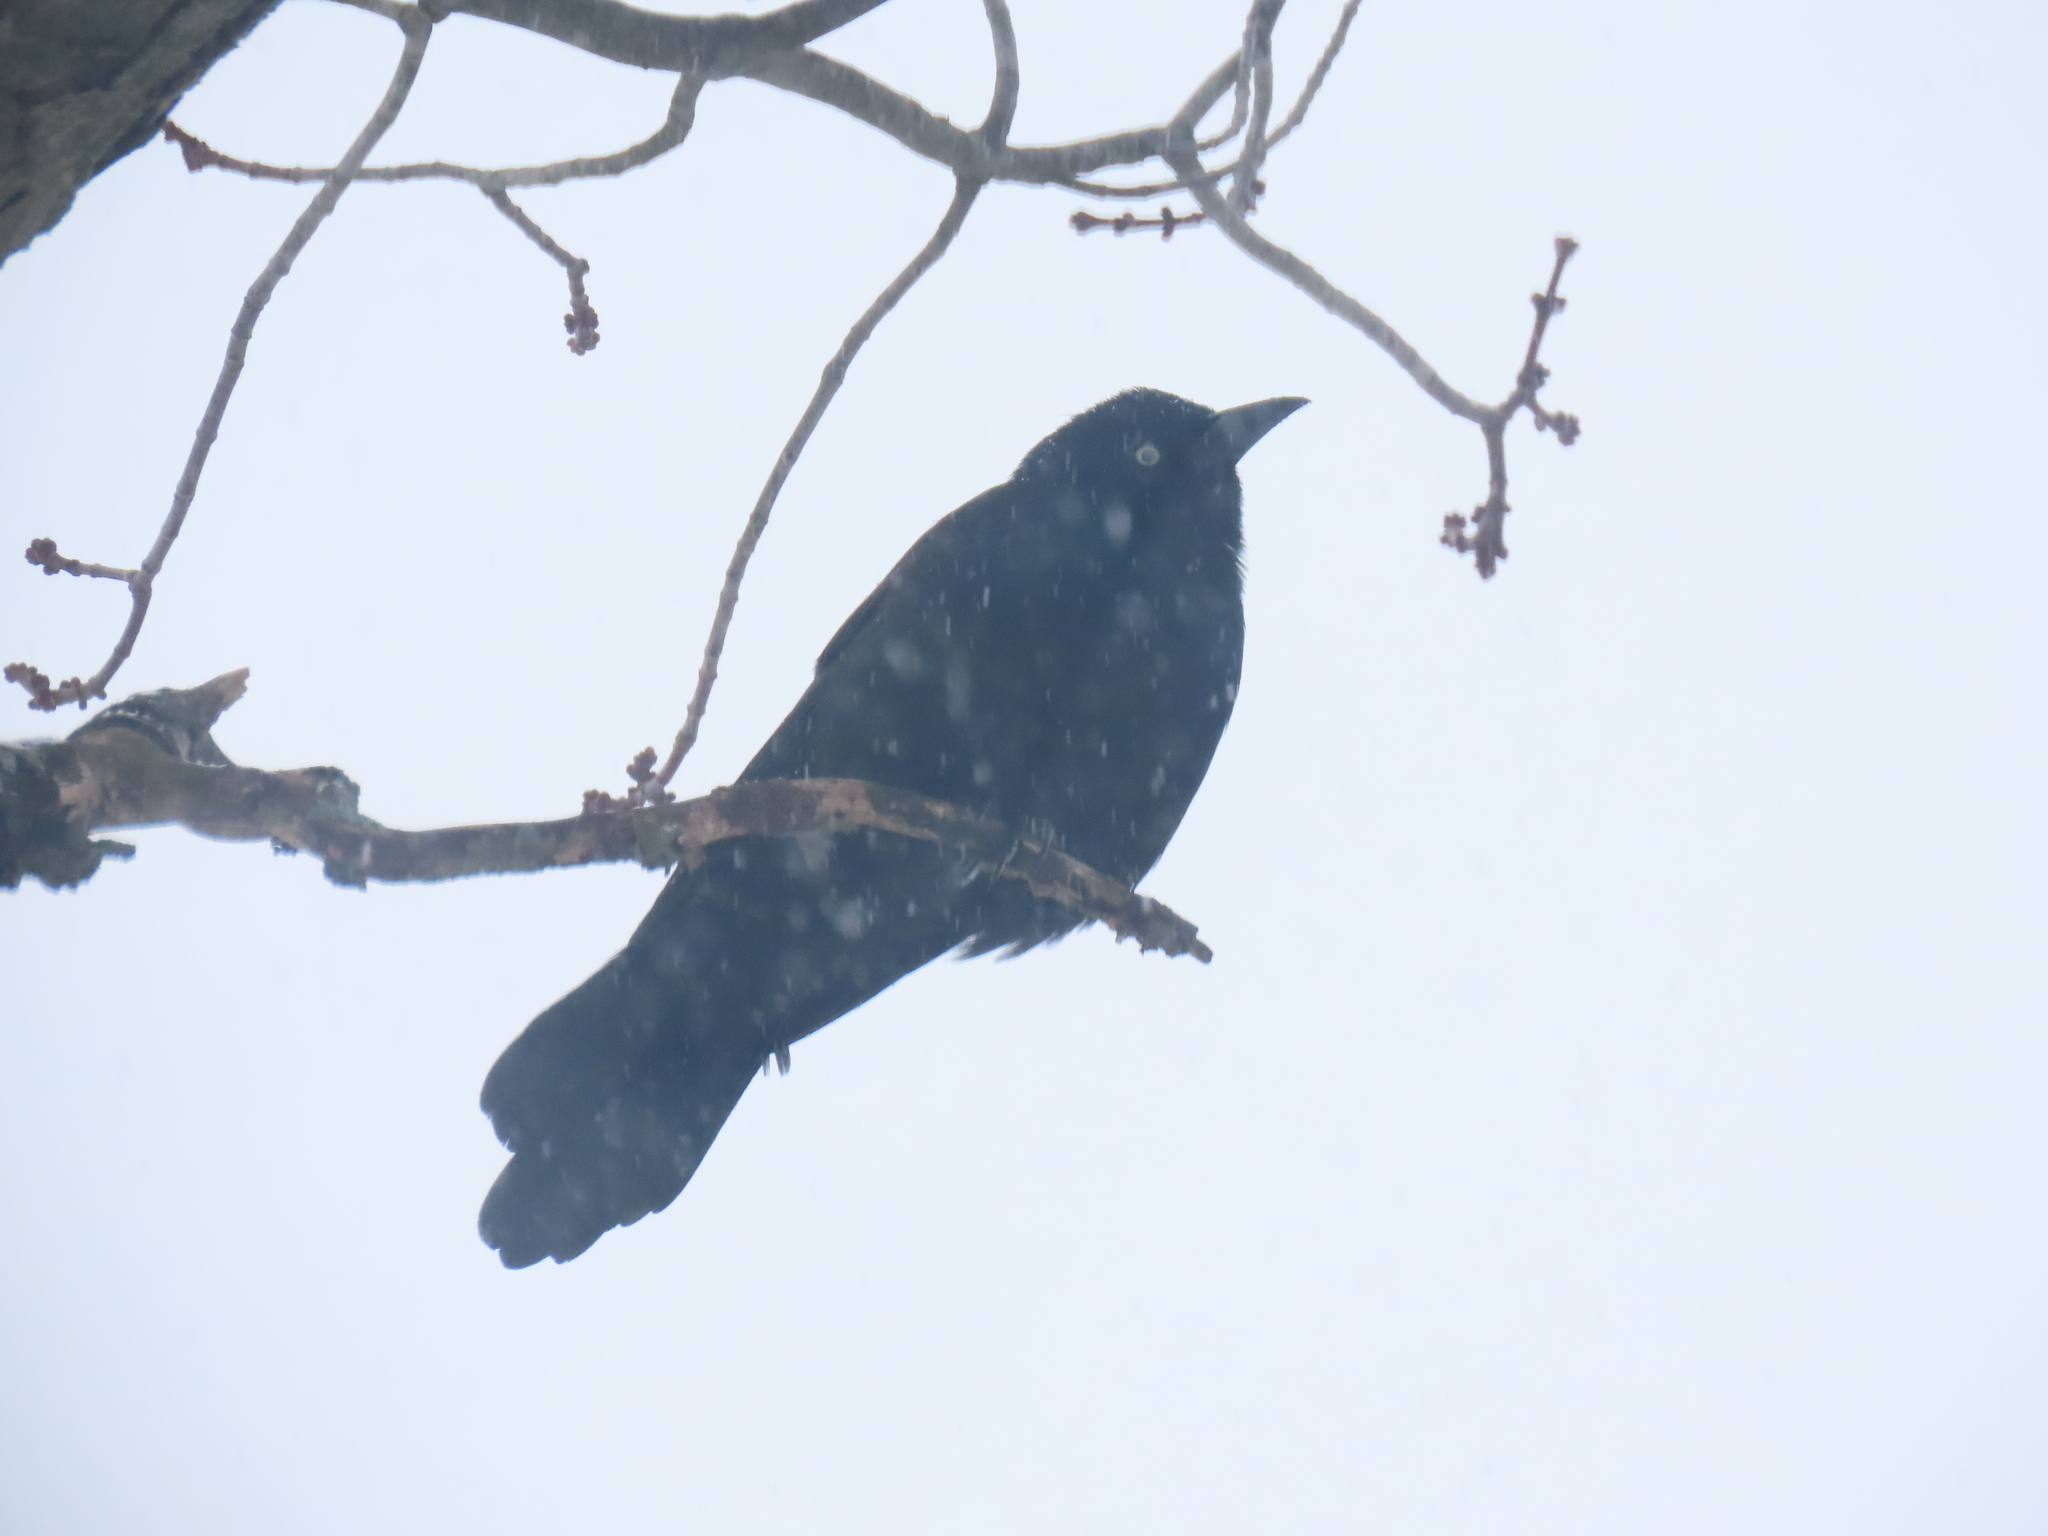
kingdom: Animalia
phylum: Chordata
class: Aves
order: Passeriformes
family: Icteridae
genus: Quiscalus
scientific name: Quiscalus quiscula
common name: Common grackle
